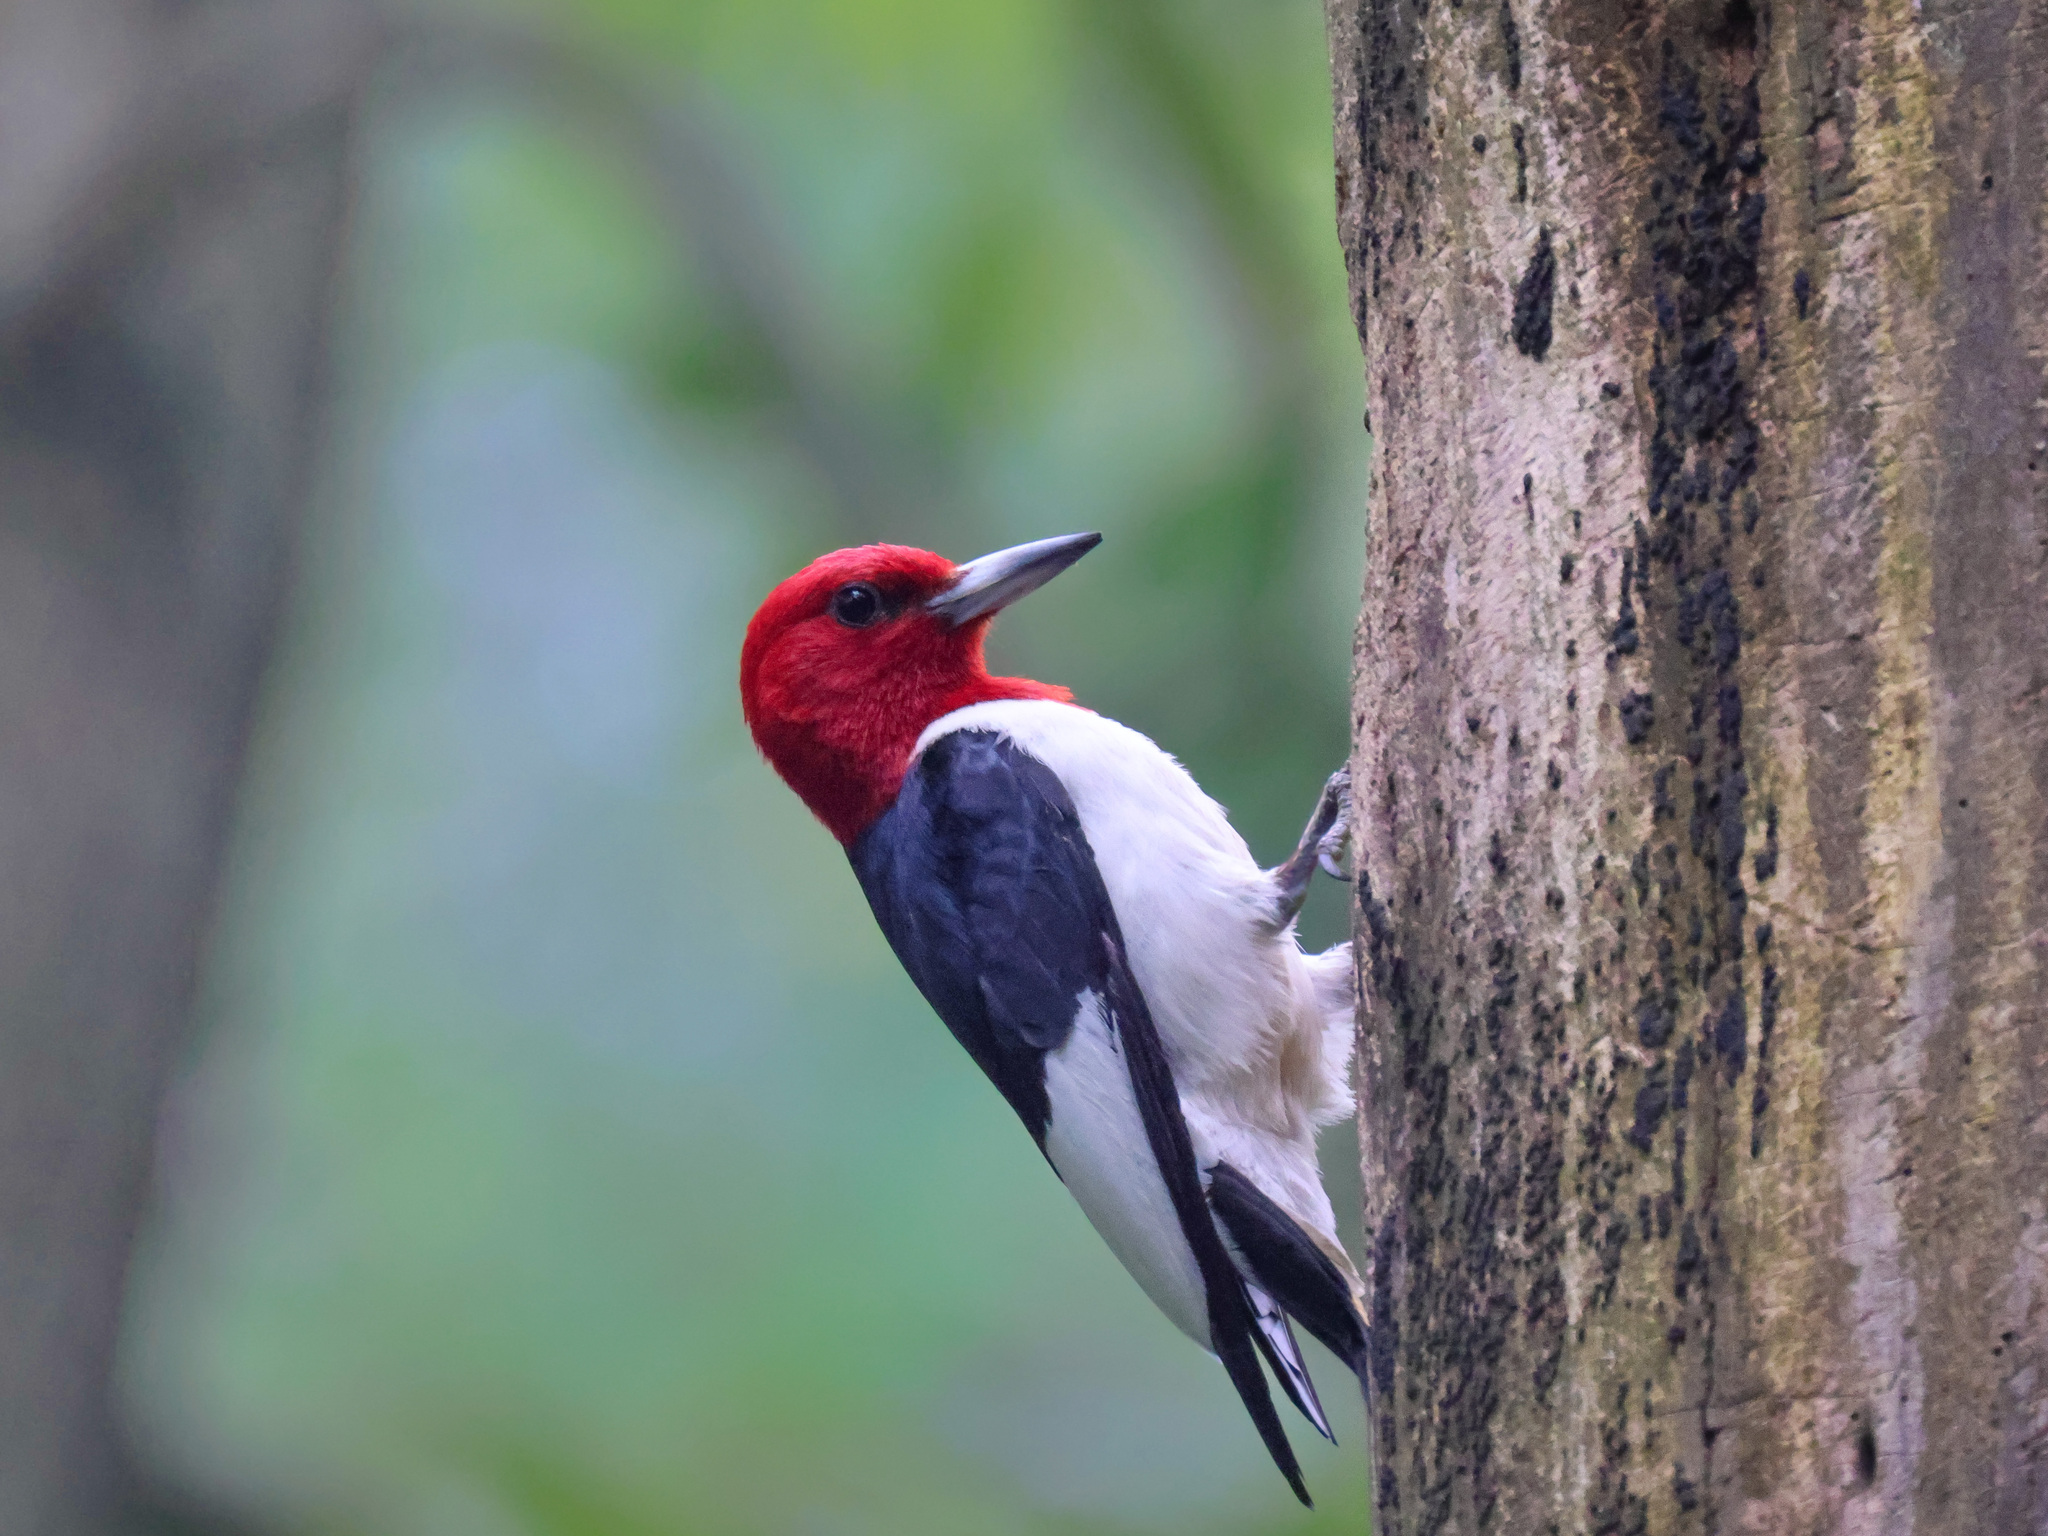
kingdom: Animalia
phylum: Chordata
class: Aves
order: Piciformes
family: Picidae
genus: Melanerpes
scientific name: Melanerpes erythrocephalus
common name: Red-headed woodpecker
